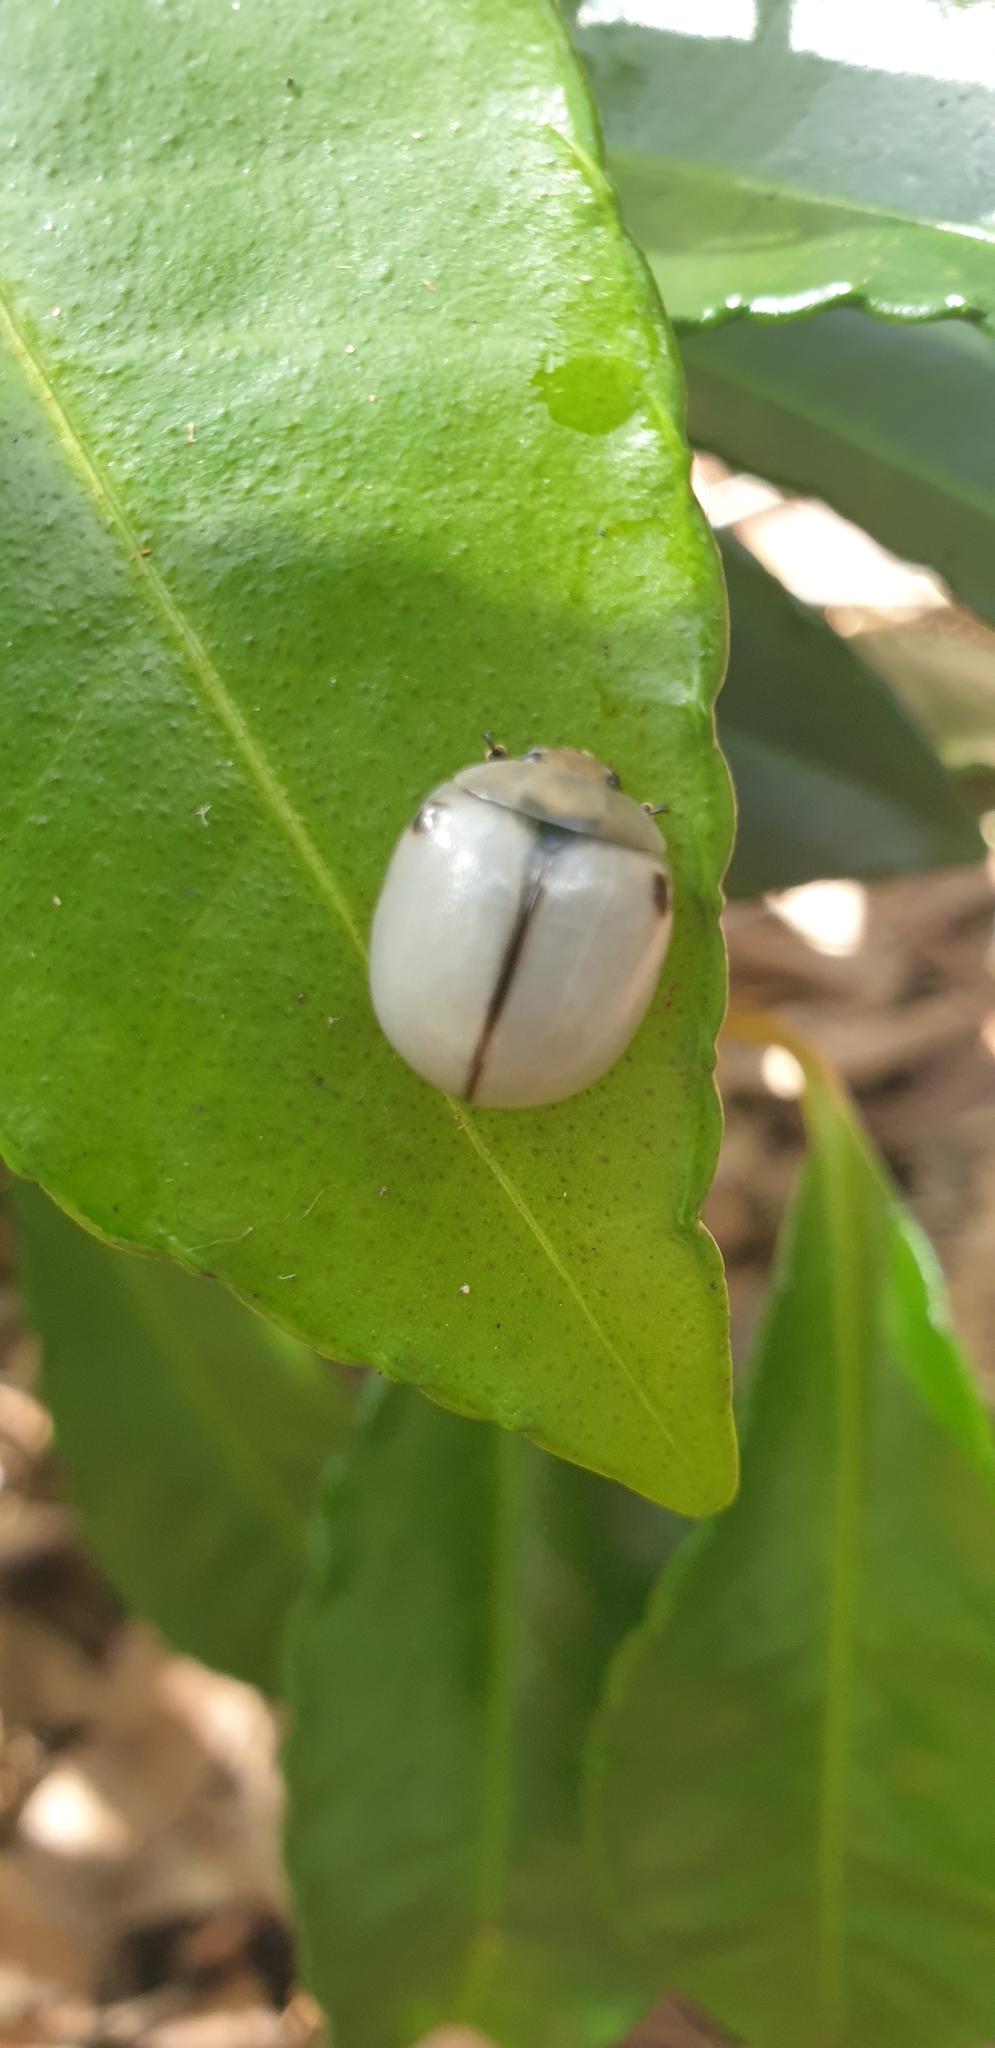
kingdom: Animalia
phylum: Arthropoda
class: Insecta
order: Coleoptera
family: Chrysomelidae
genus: Dicranosterna
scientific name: Dicranosterna
